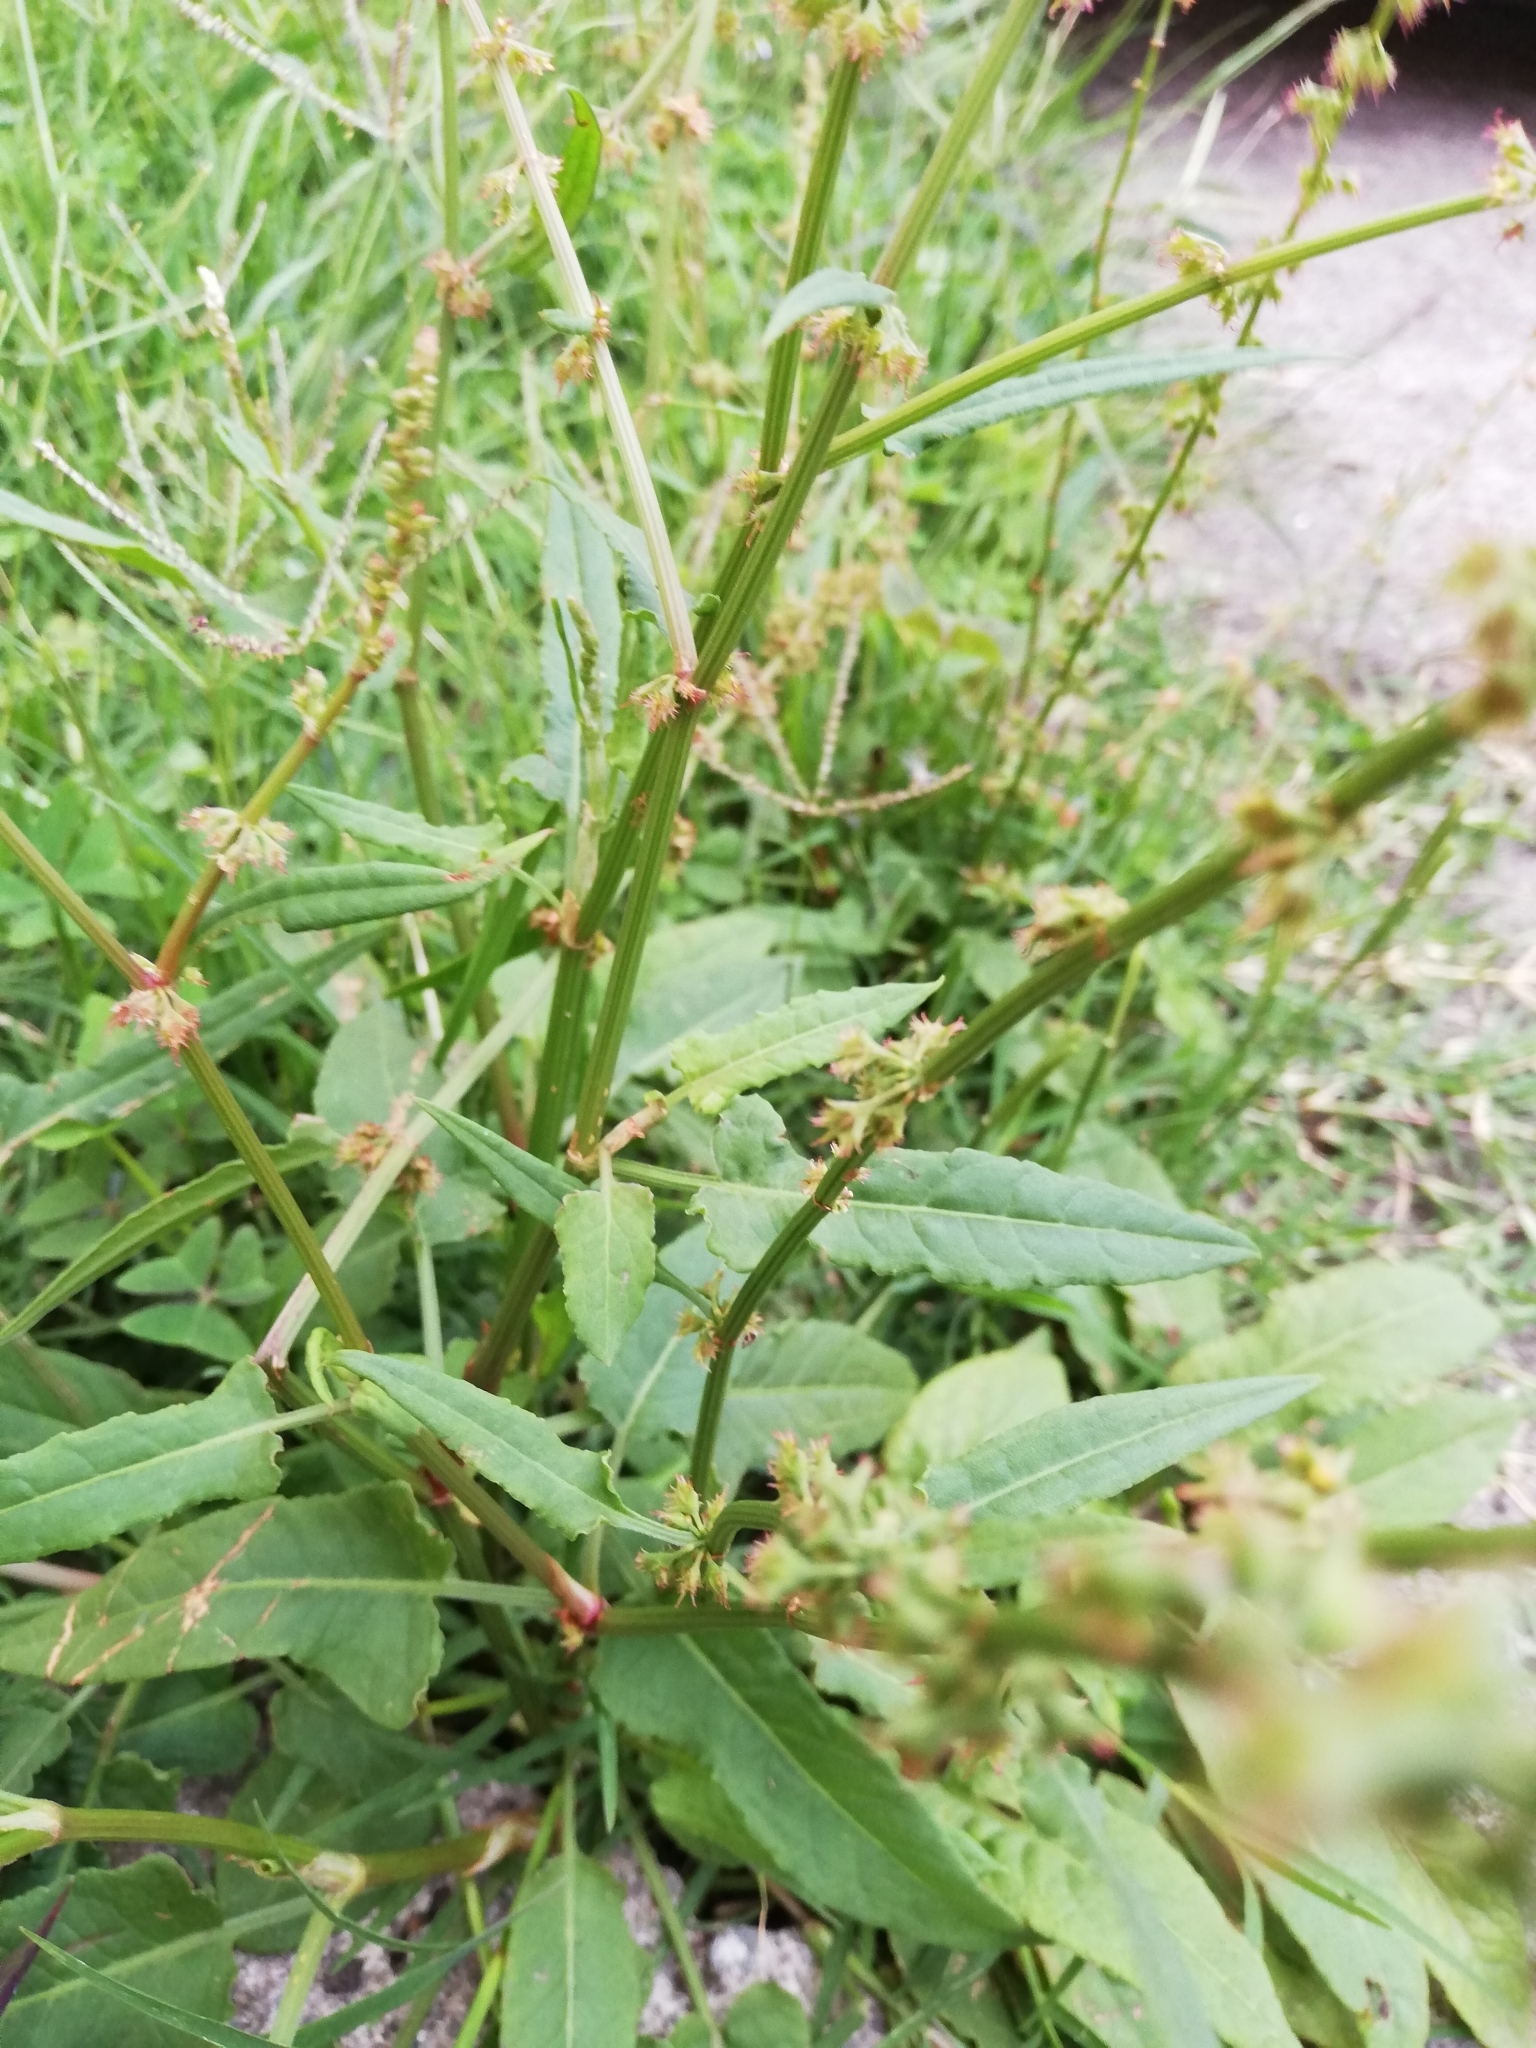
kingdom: Plantae
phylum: Tracheophyta
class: Magnoliopsida
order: Caryophyllales
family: Polygonaceae
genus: Rumex
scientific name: Rumex obtusifolius
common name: Bitter dock
